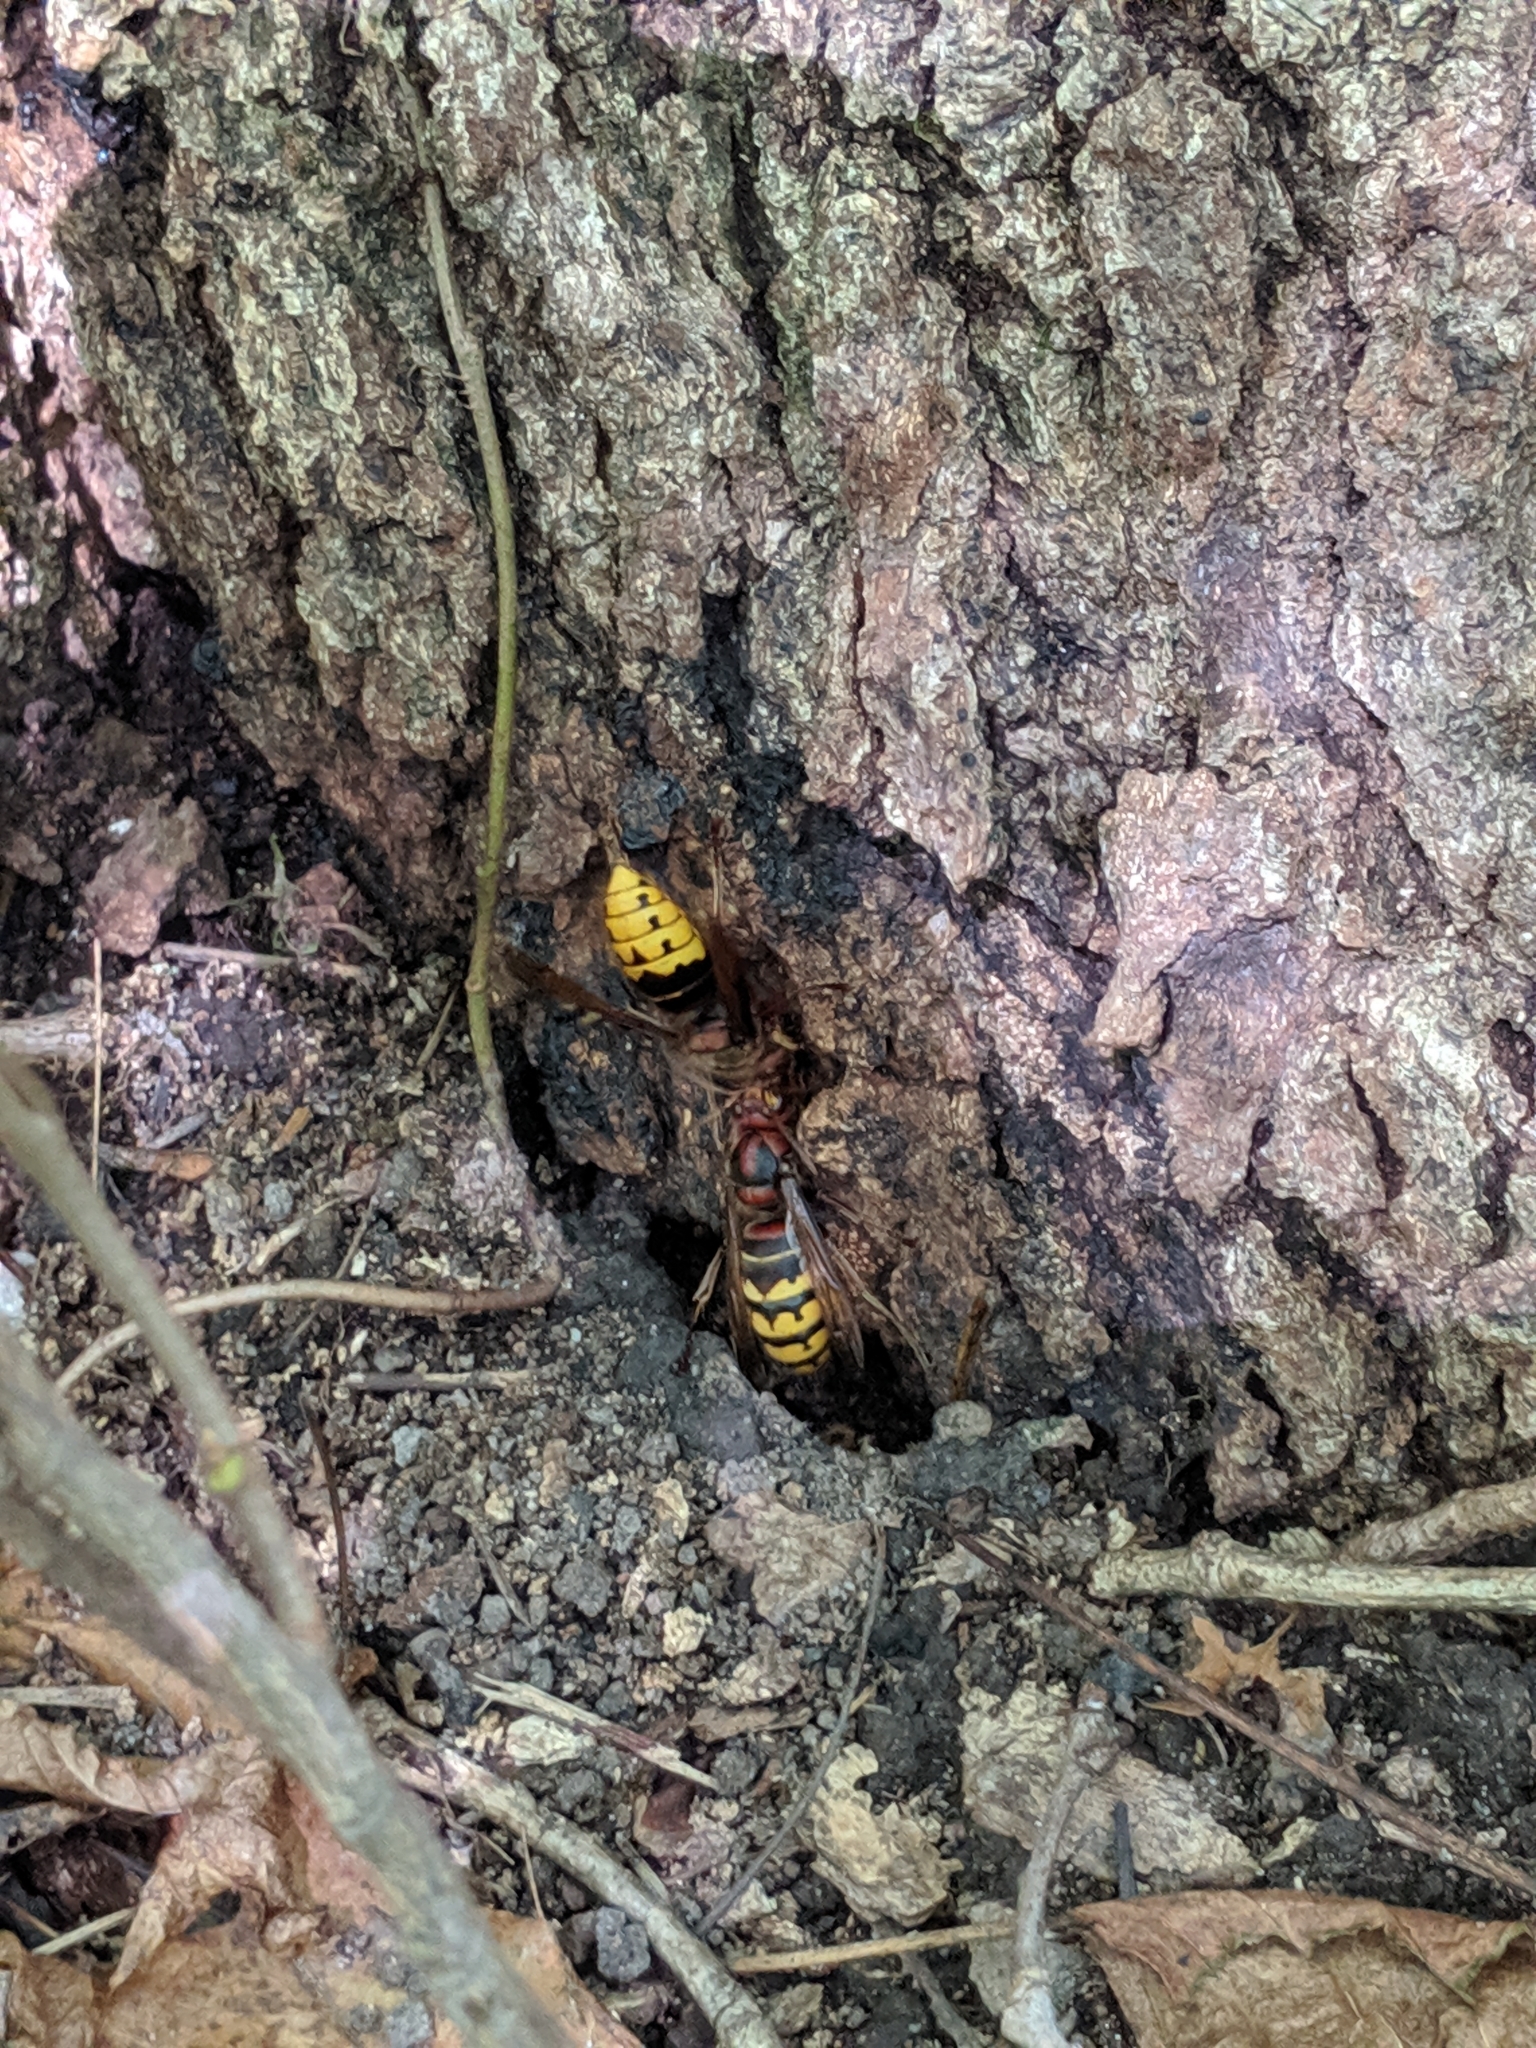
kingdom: Animalia
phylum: Arthropoda
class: Insecta
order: Hymenoptera
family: Vespidae
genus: Vespa
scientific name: Vespa crabro
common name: Hornet
